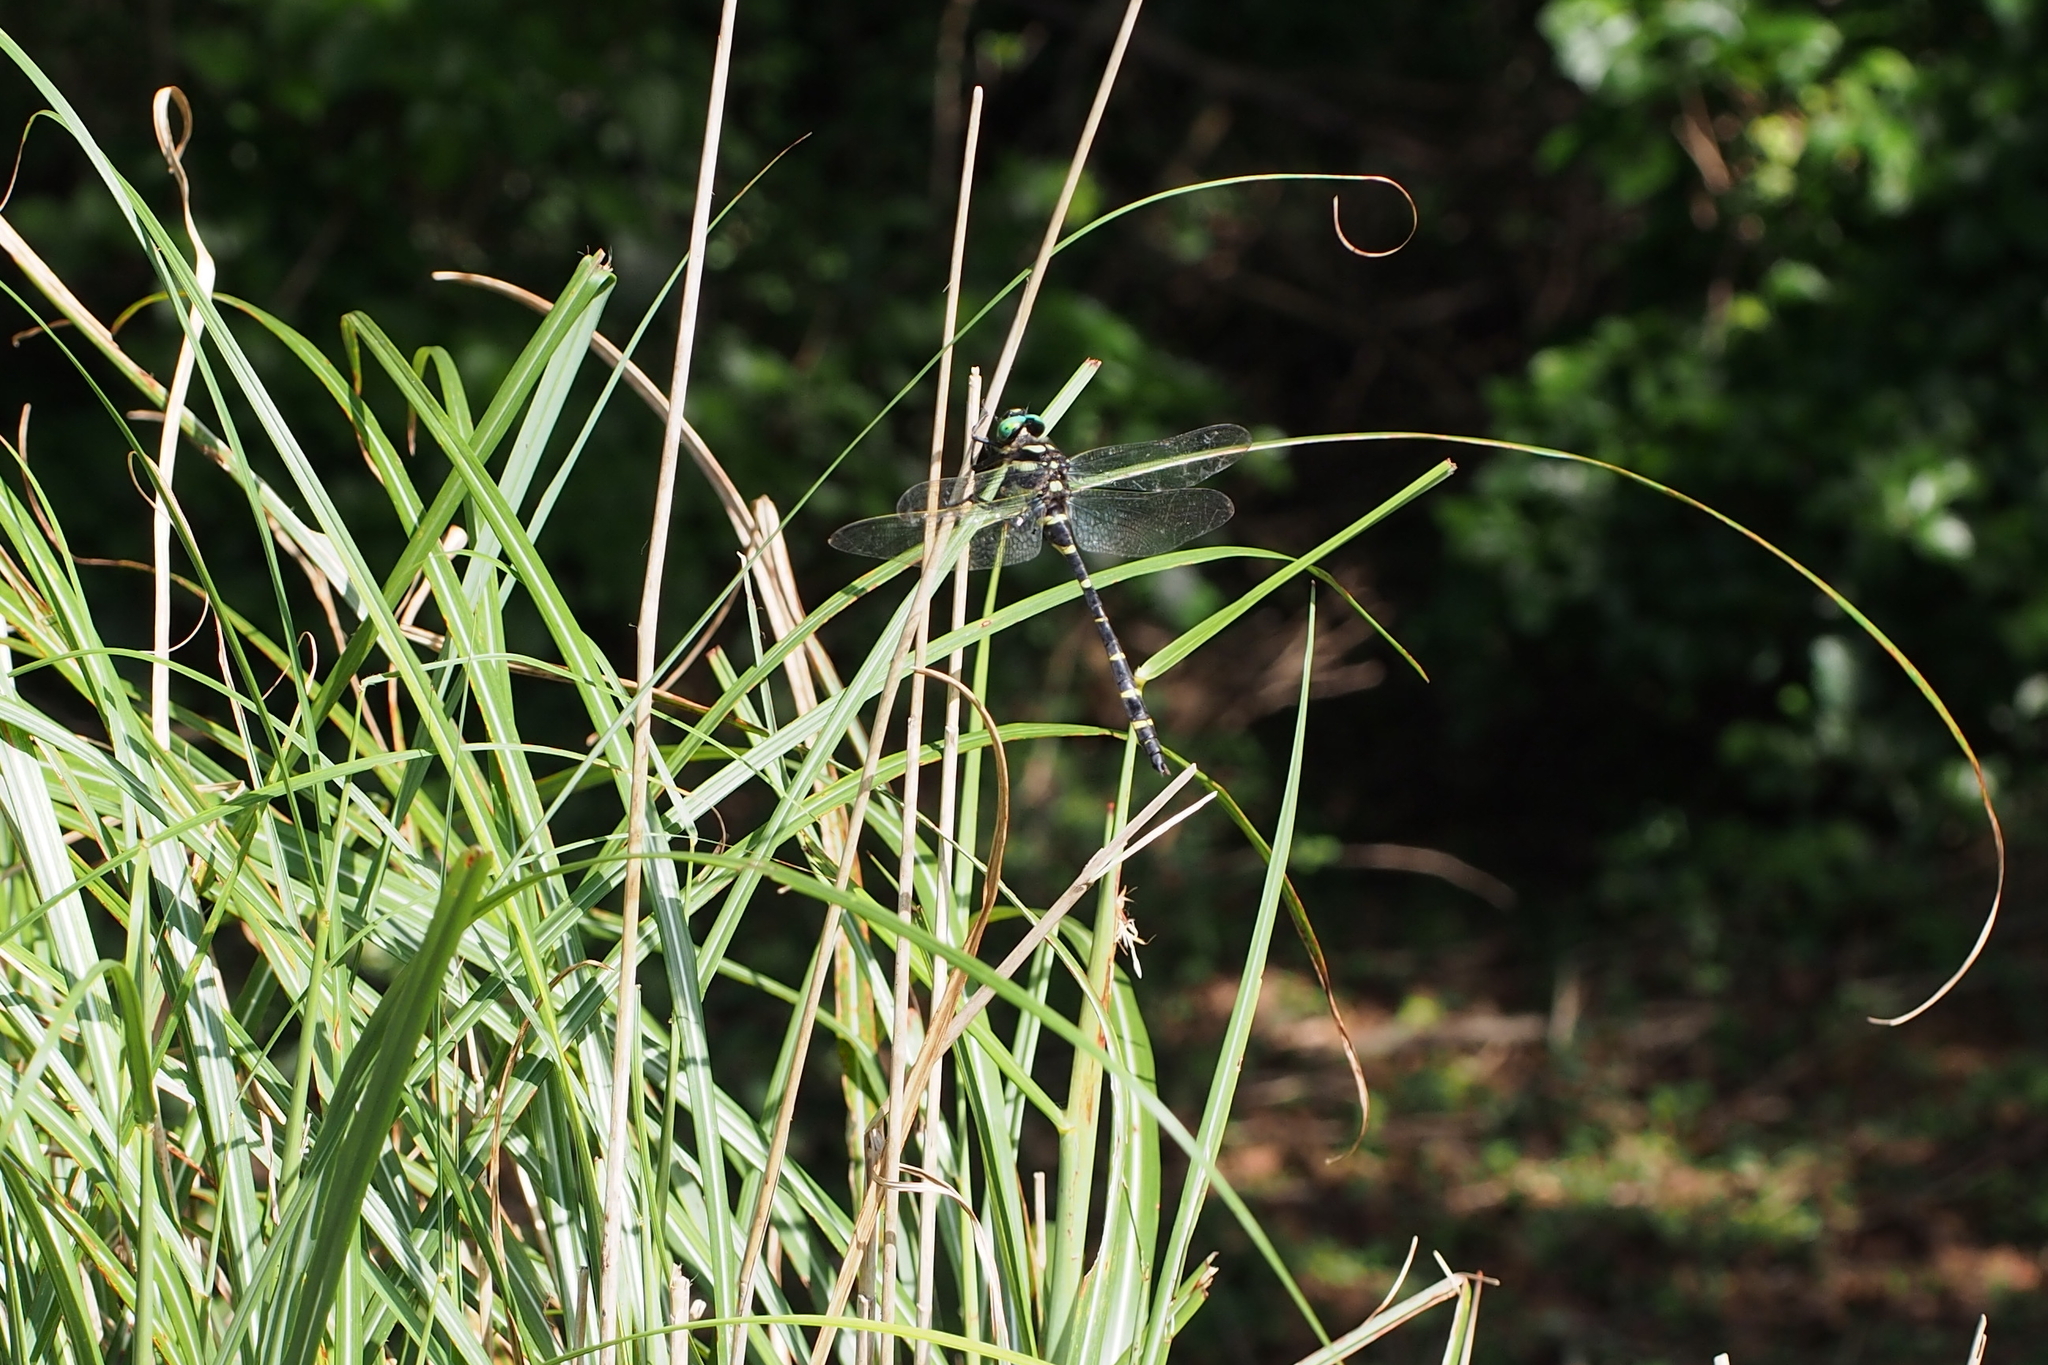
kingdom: Animalia
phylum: Arthropoda
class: Insecta
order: Odonata
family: Cordulegastridae
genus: Anotogaster
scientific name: Anotogaster sieboldii
